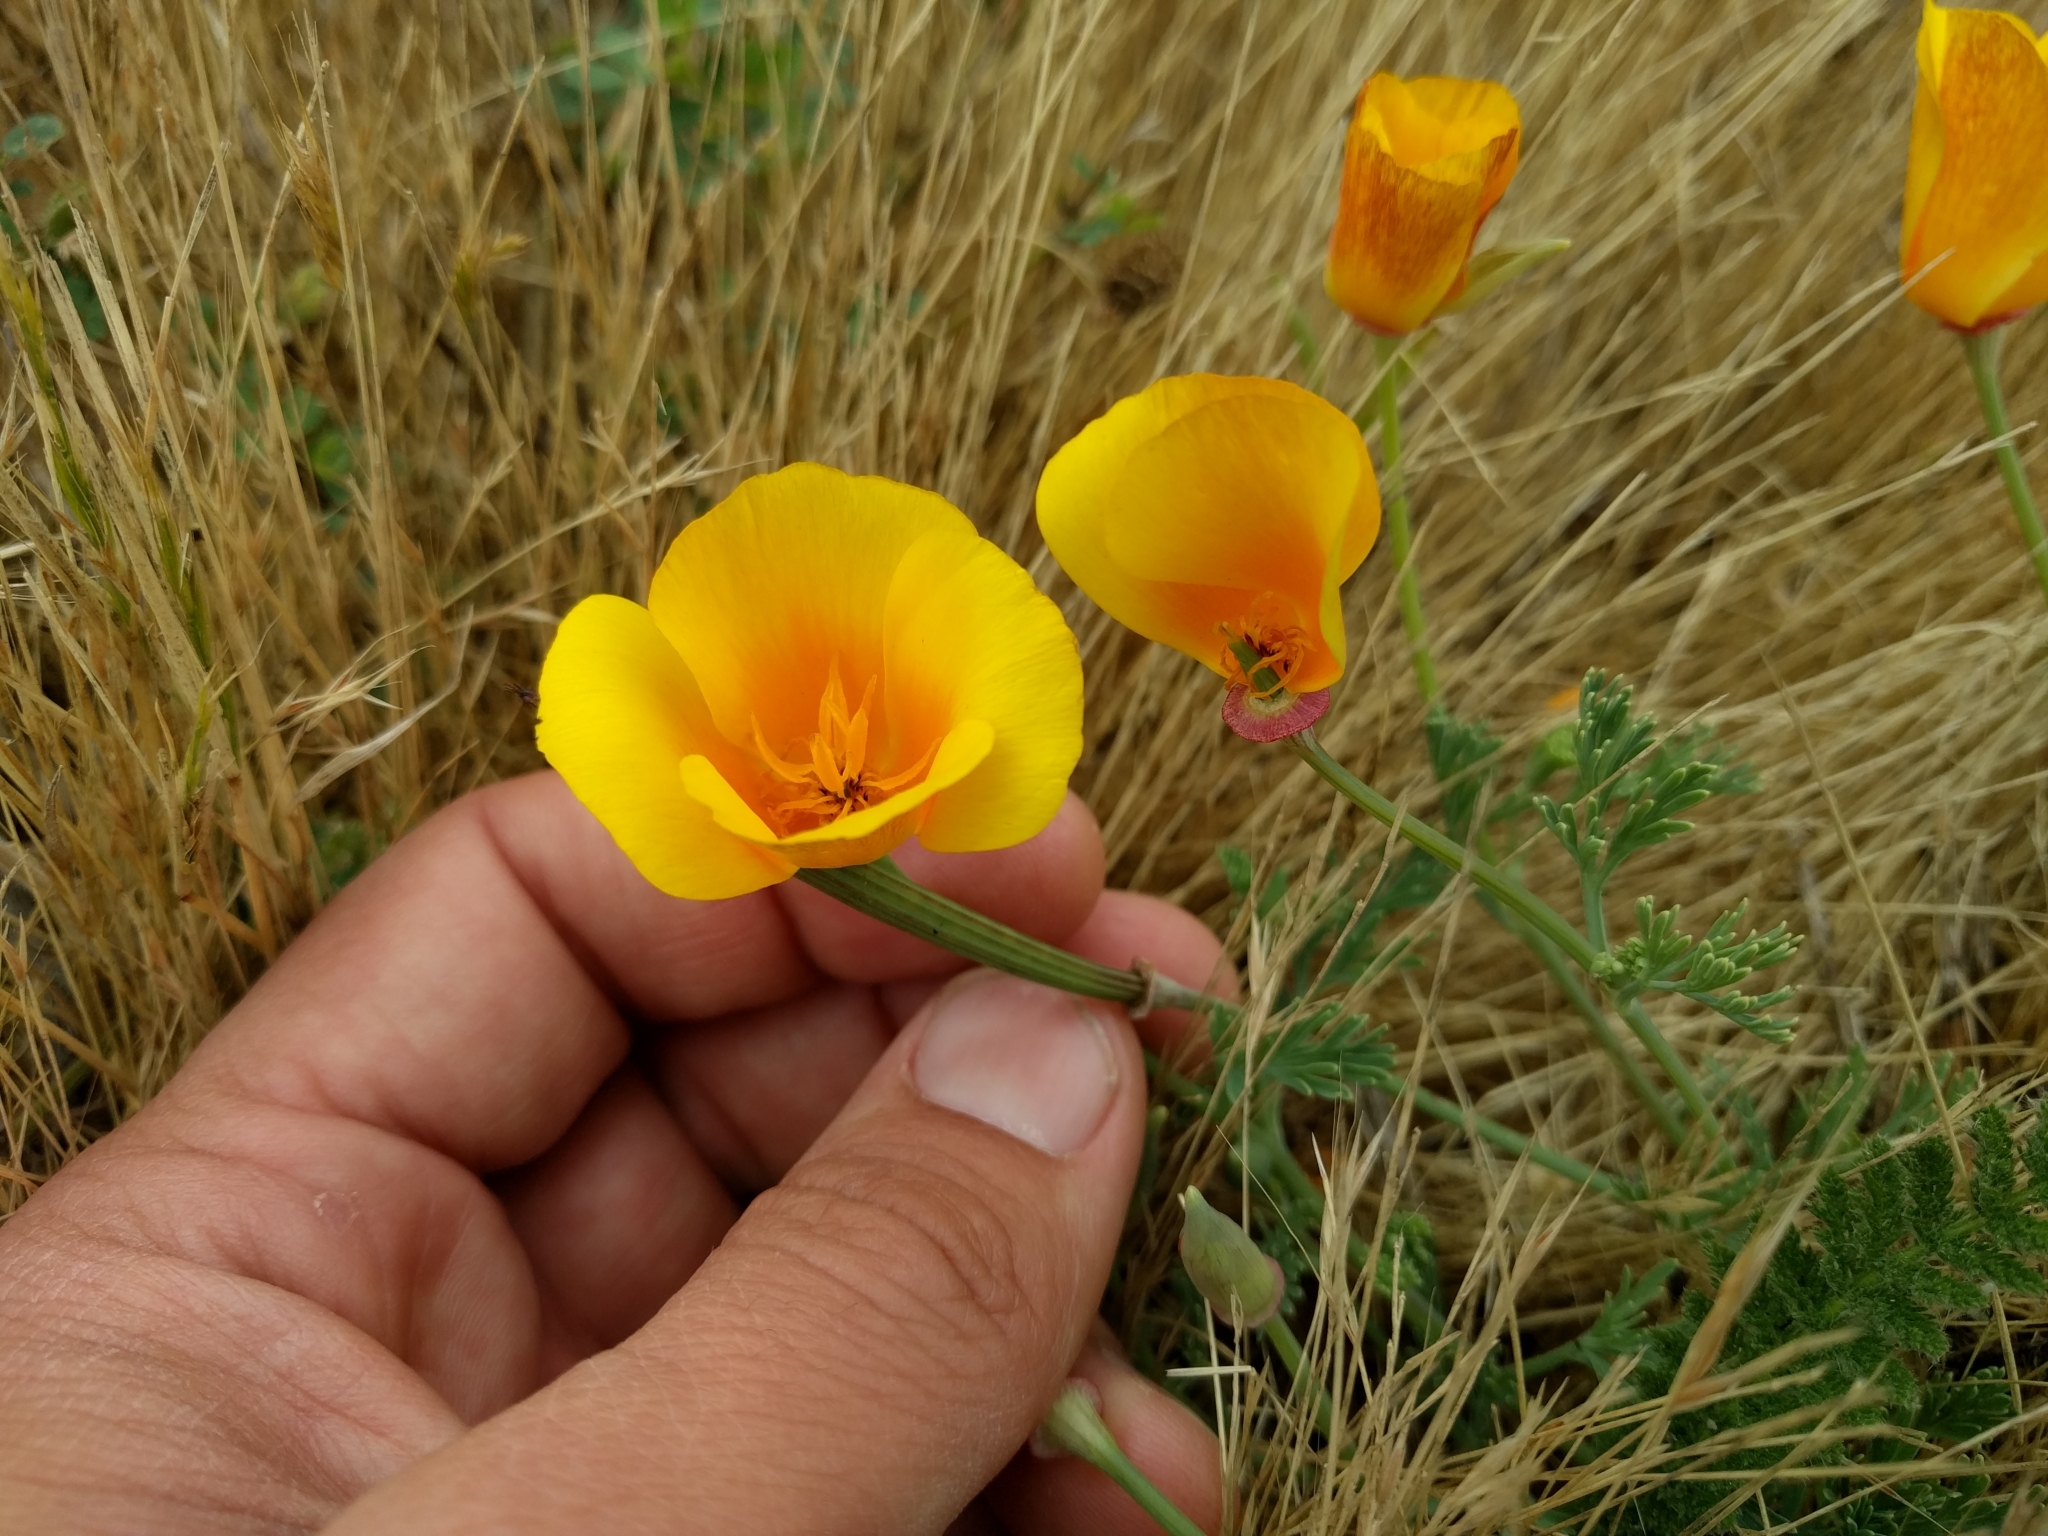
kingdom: Plantae
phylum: Tracheophyta
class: Magnoliopsida
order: Ranunculales
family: Papaveraceae
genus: Eschscholzia
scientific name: Eschscholzia californica
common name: California poppy
